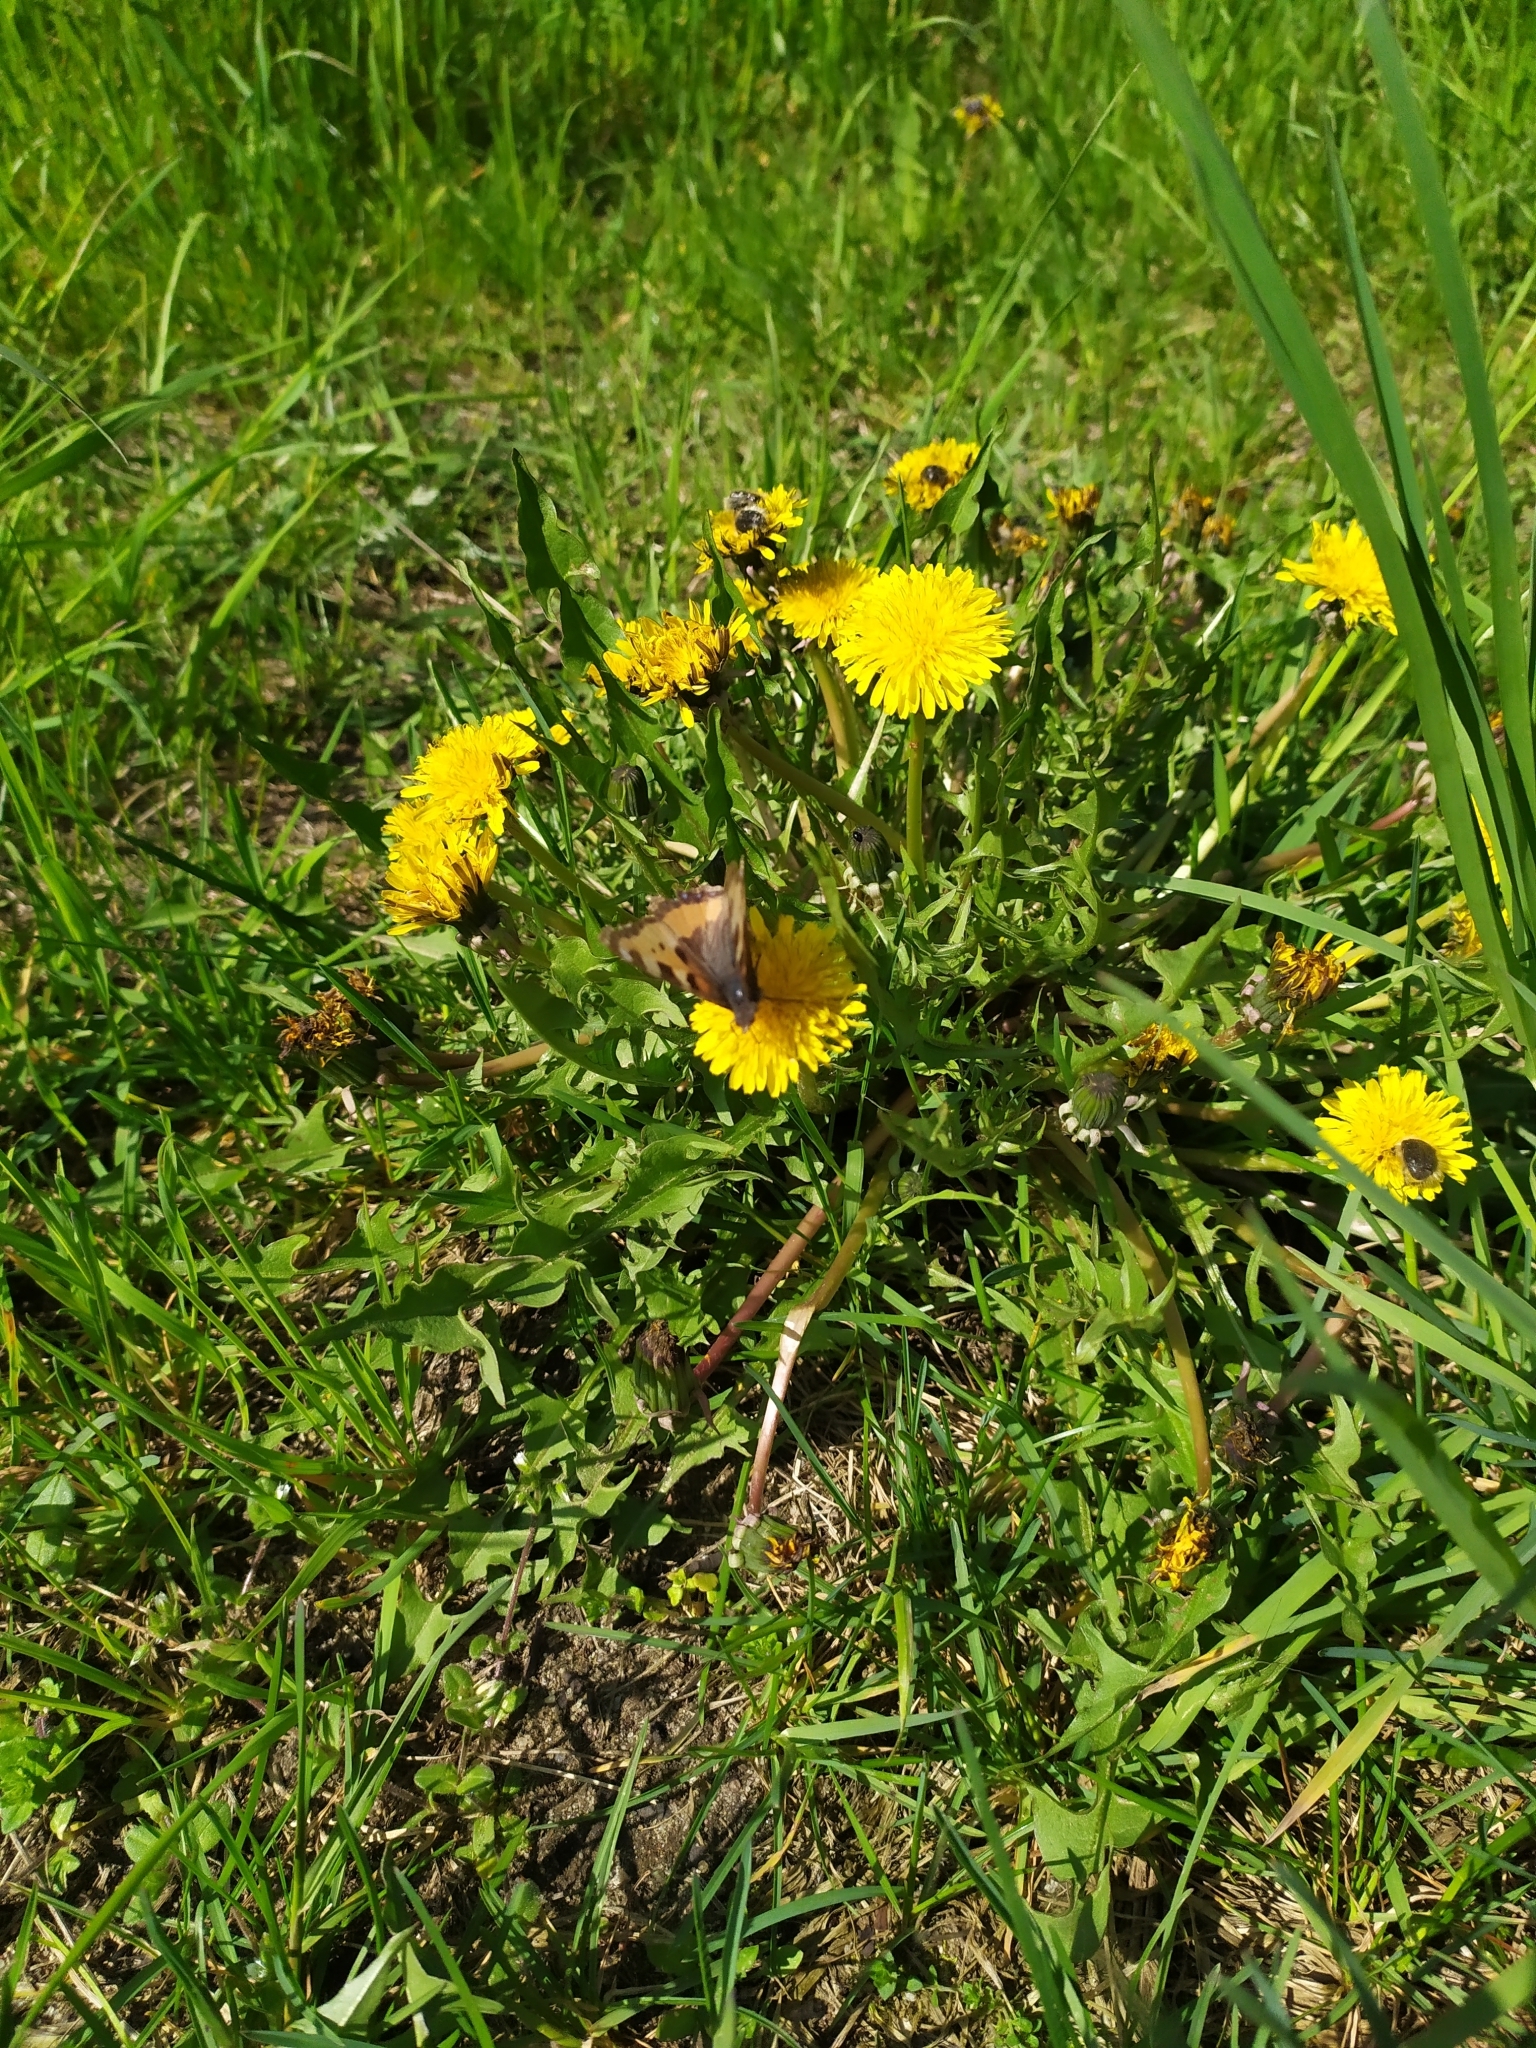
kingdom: Animalia
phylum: Arthropoda
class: Insecta
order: Lepidoptera
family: Nymphalidae
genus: Aglais
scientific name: Aglais urticae
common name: Small tortoiseshell
